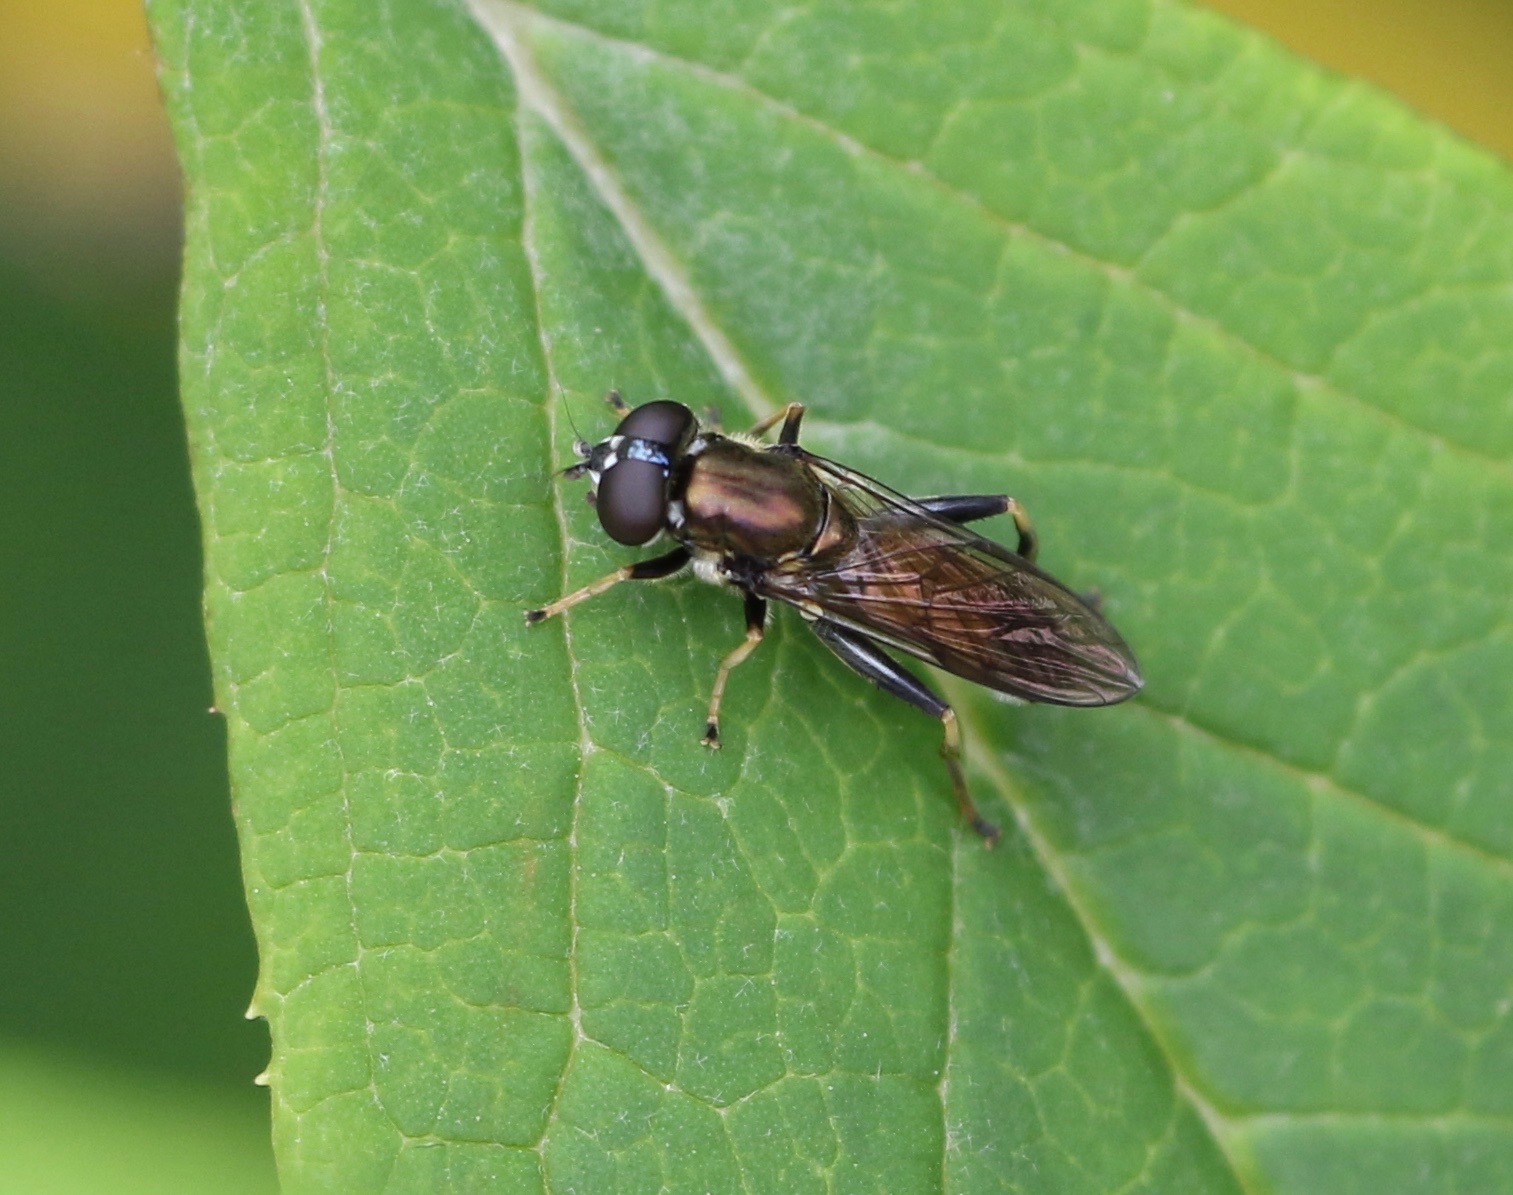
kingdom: Animalia
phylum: Arthropoda
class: Insecta
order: Diptera
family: Syrphidae
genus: Xylota
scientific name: Xylota segnis
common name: Brown-toed forest fly
